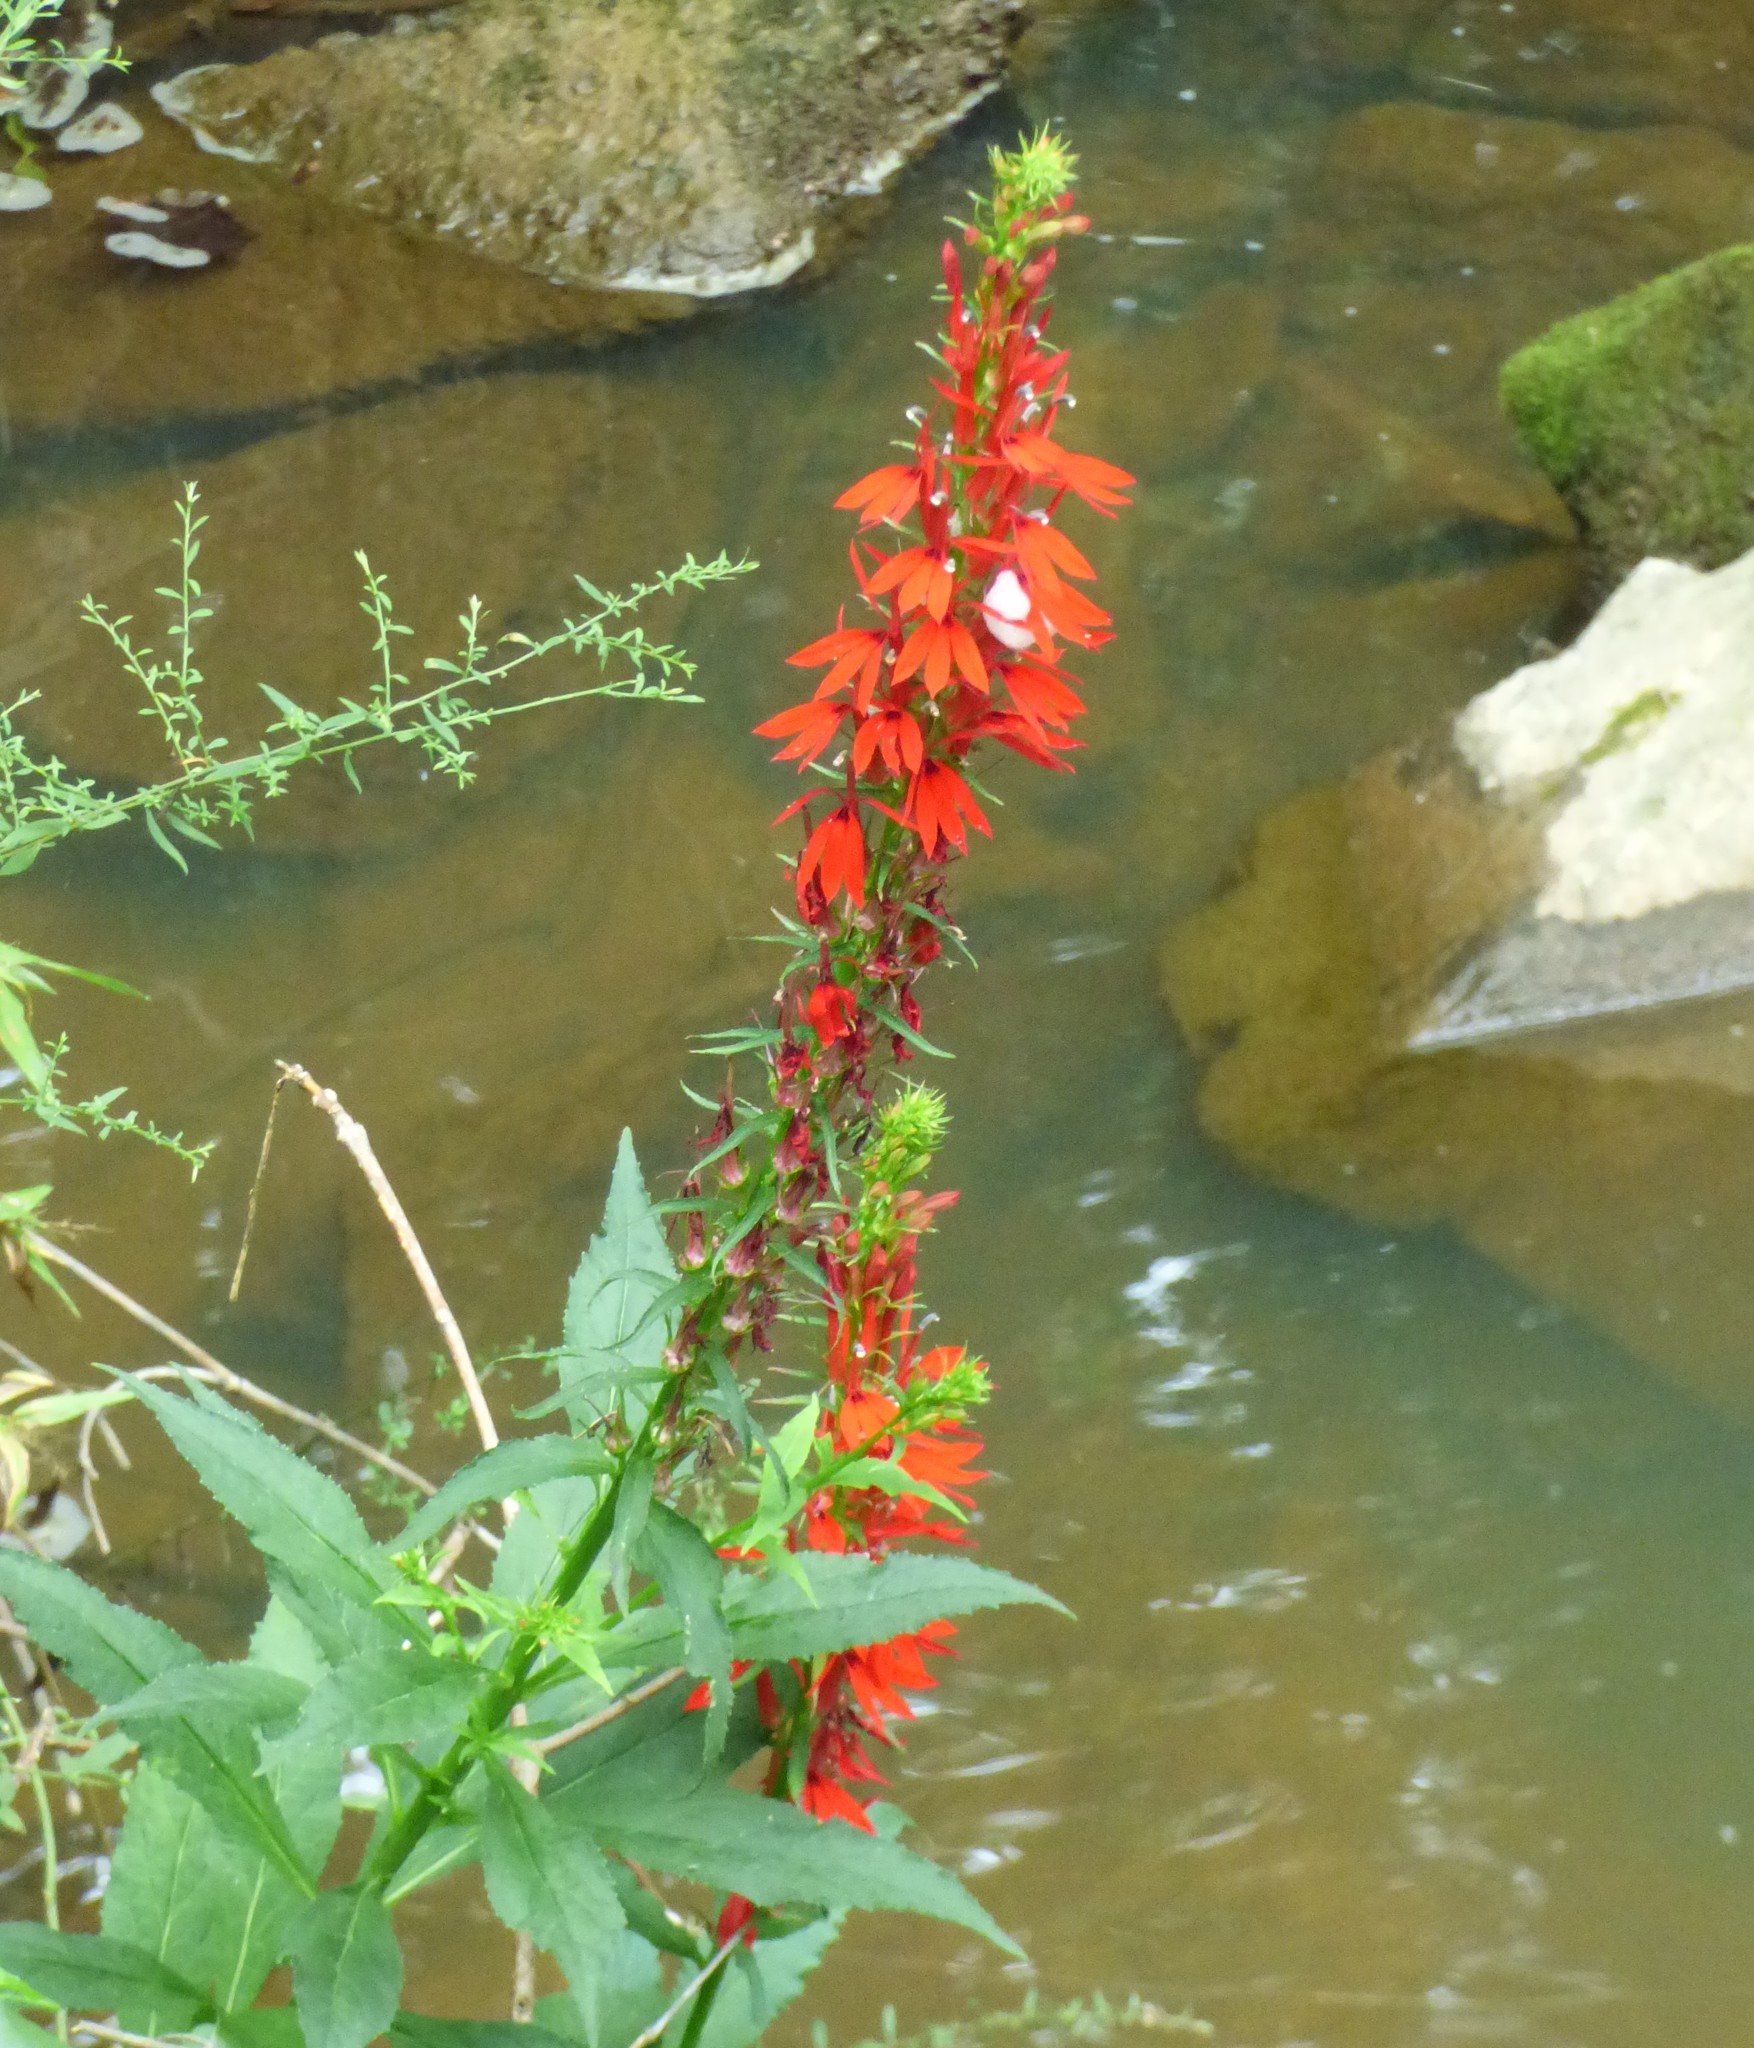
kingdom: Plantae
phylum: Tracheophyta
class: Magnoliopsida
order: Asterales
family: Campanulaceae
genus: Lobelia
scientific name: Lobelia cardinalis
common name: Cardinal flower
